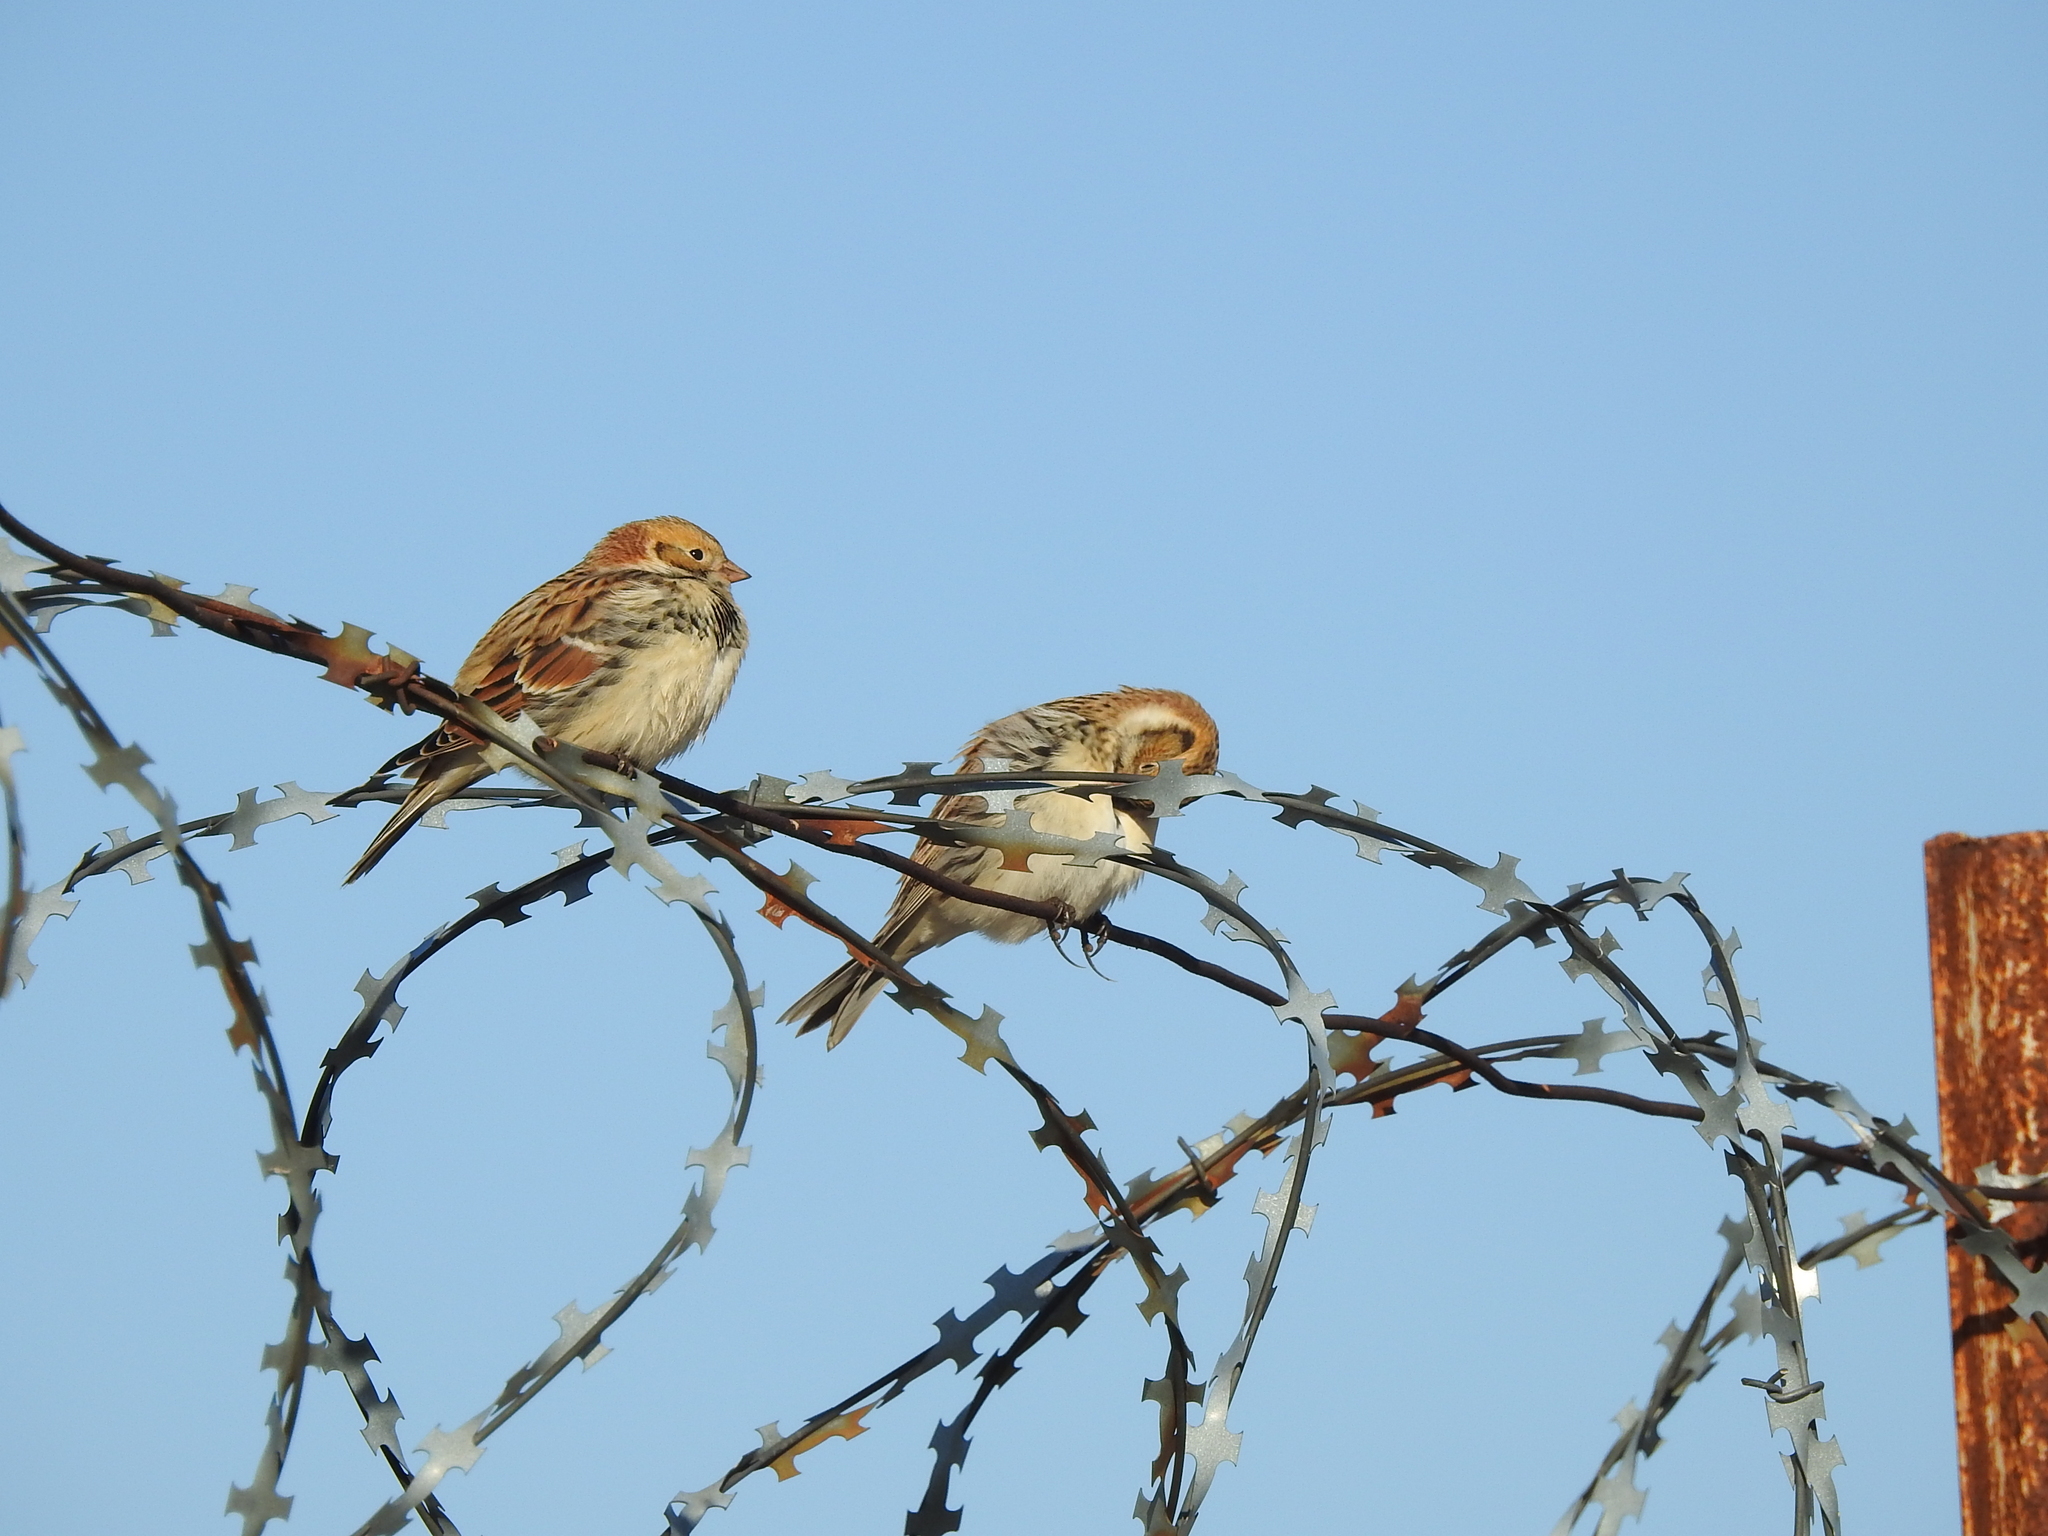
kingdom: Animalia
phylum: Chordata
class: Aves
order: Passeriformes
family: Calcariidae
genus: Calcarius
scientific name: Calcarius lapponicus
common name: Lapland longspur
